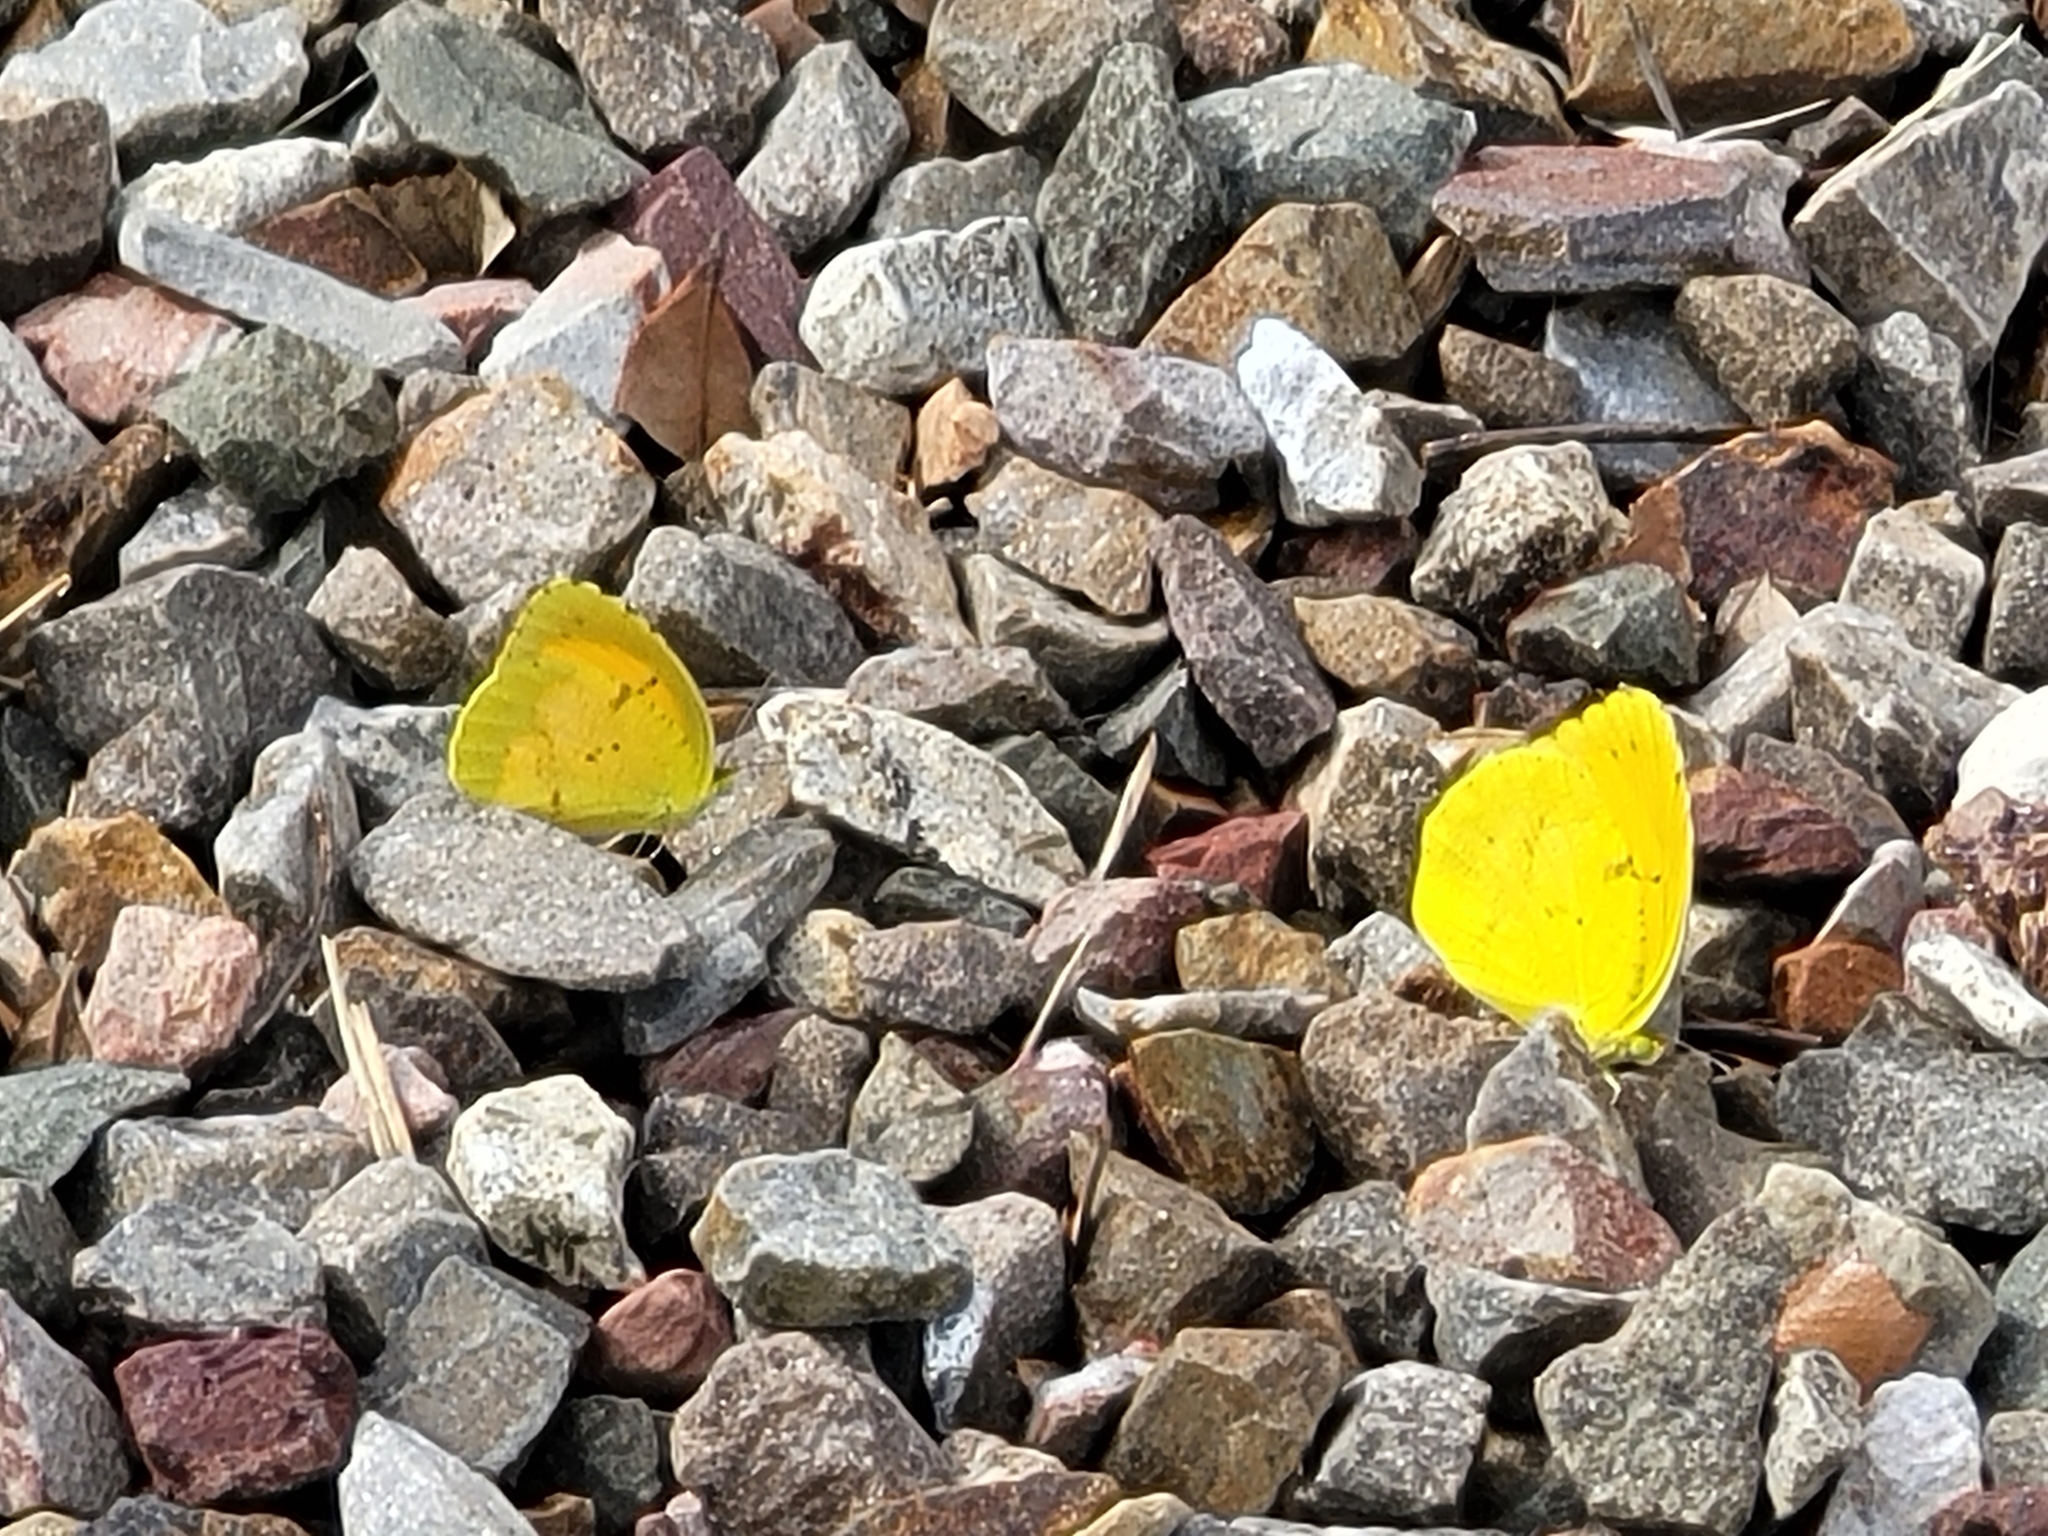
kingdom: Animalia
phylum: Arthropoda
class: Insecta
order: Lepidoptera
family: Pieridae
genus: Abaeis
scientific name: Abaeis nicippe
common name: Sleepy orange
